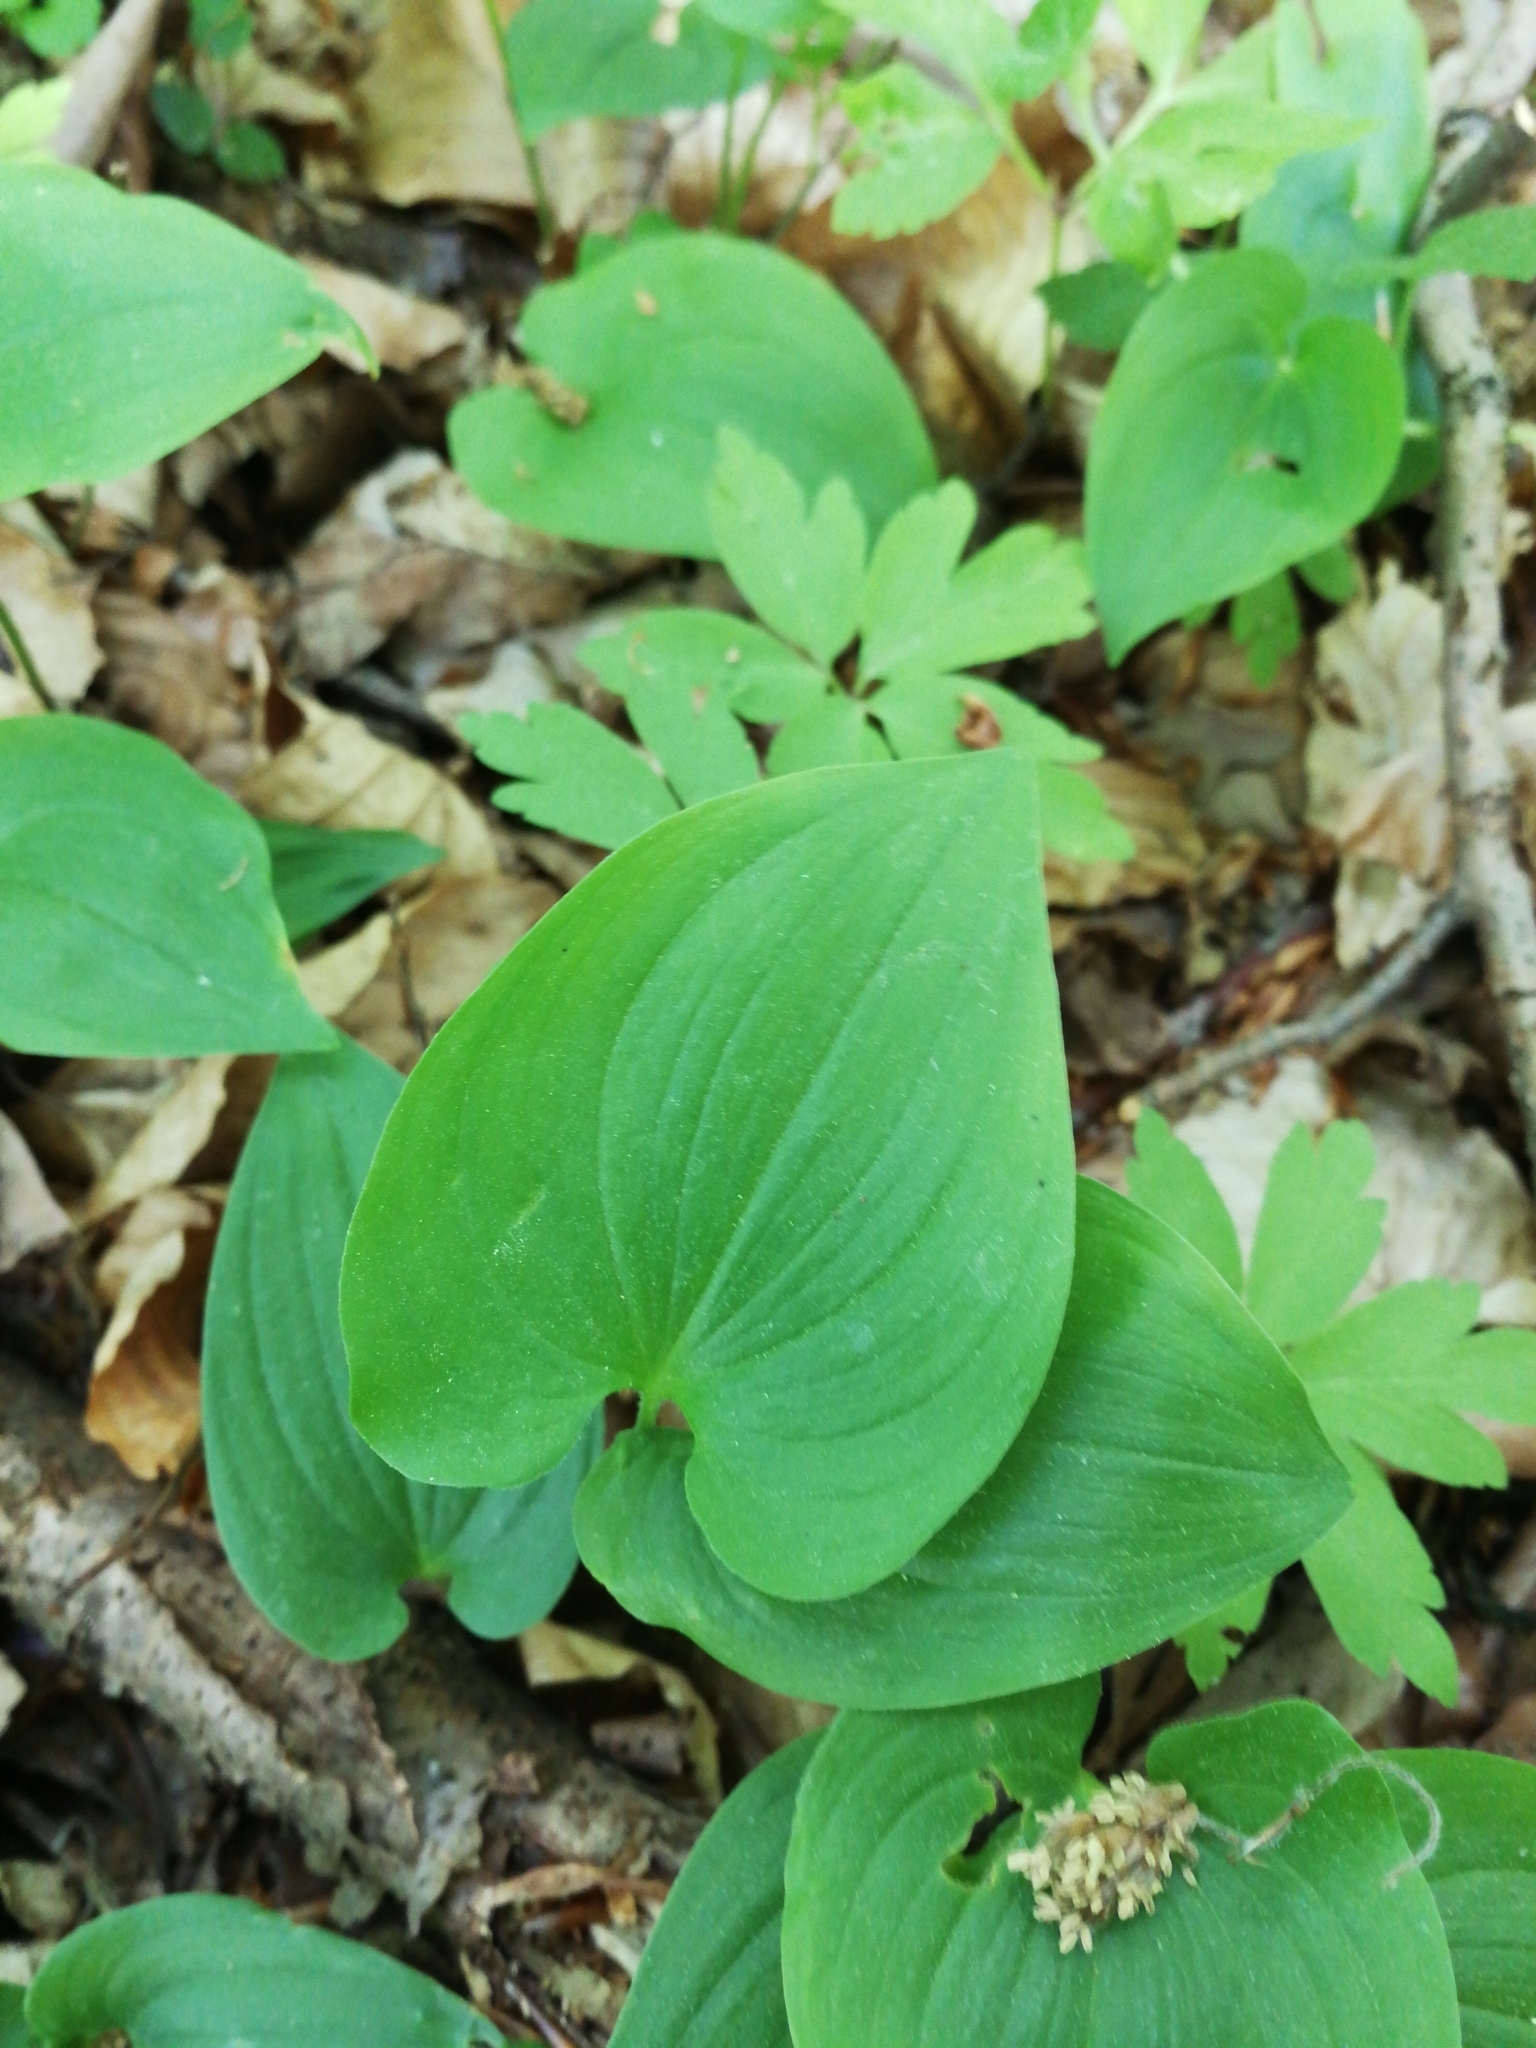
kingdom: Plantae
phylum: Tracheophyta
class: Liliopsida
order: Asparagales
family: Asparagaceae
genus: Maianthemum
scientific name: Maianthemum bifolium
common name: May lily
